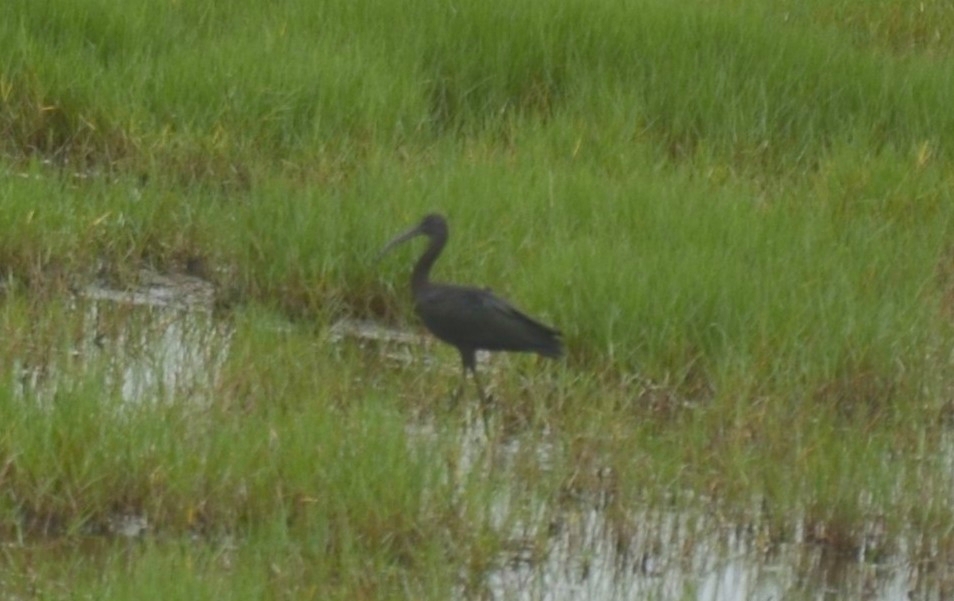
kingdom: Animalia
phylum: Chordata
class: Aves
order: Pelecaniformes
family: Threskiornithidae
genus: Plegadis
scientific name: Plegadis falcinellus
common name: Glossy ibis
